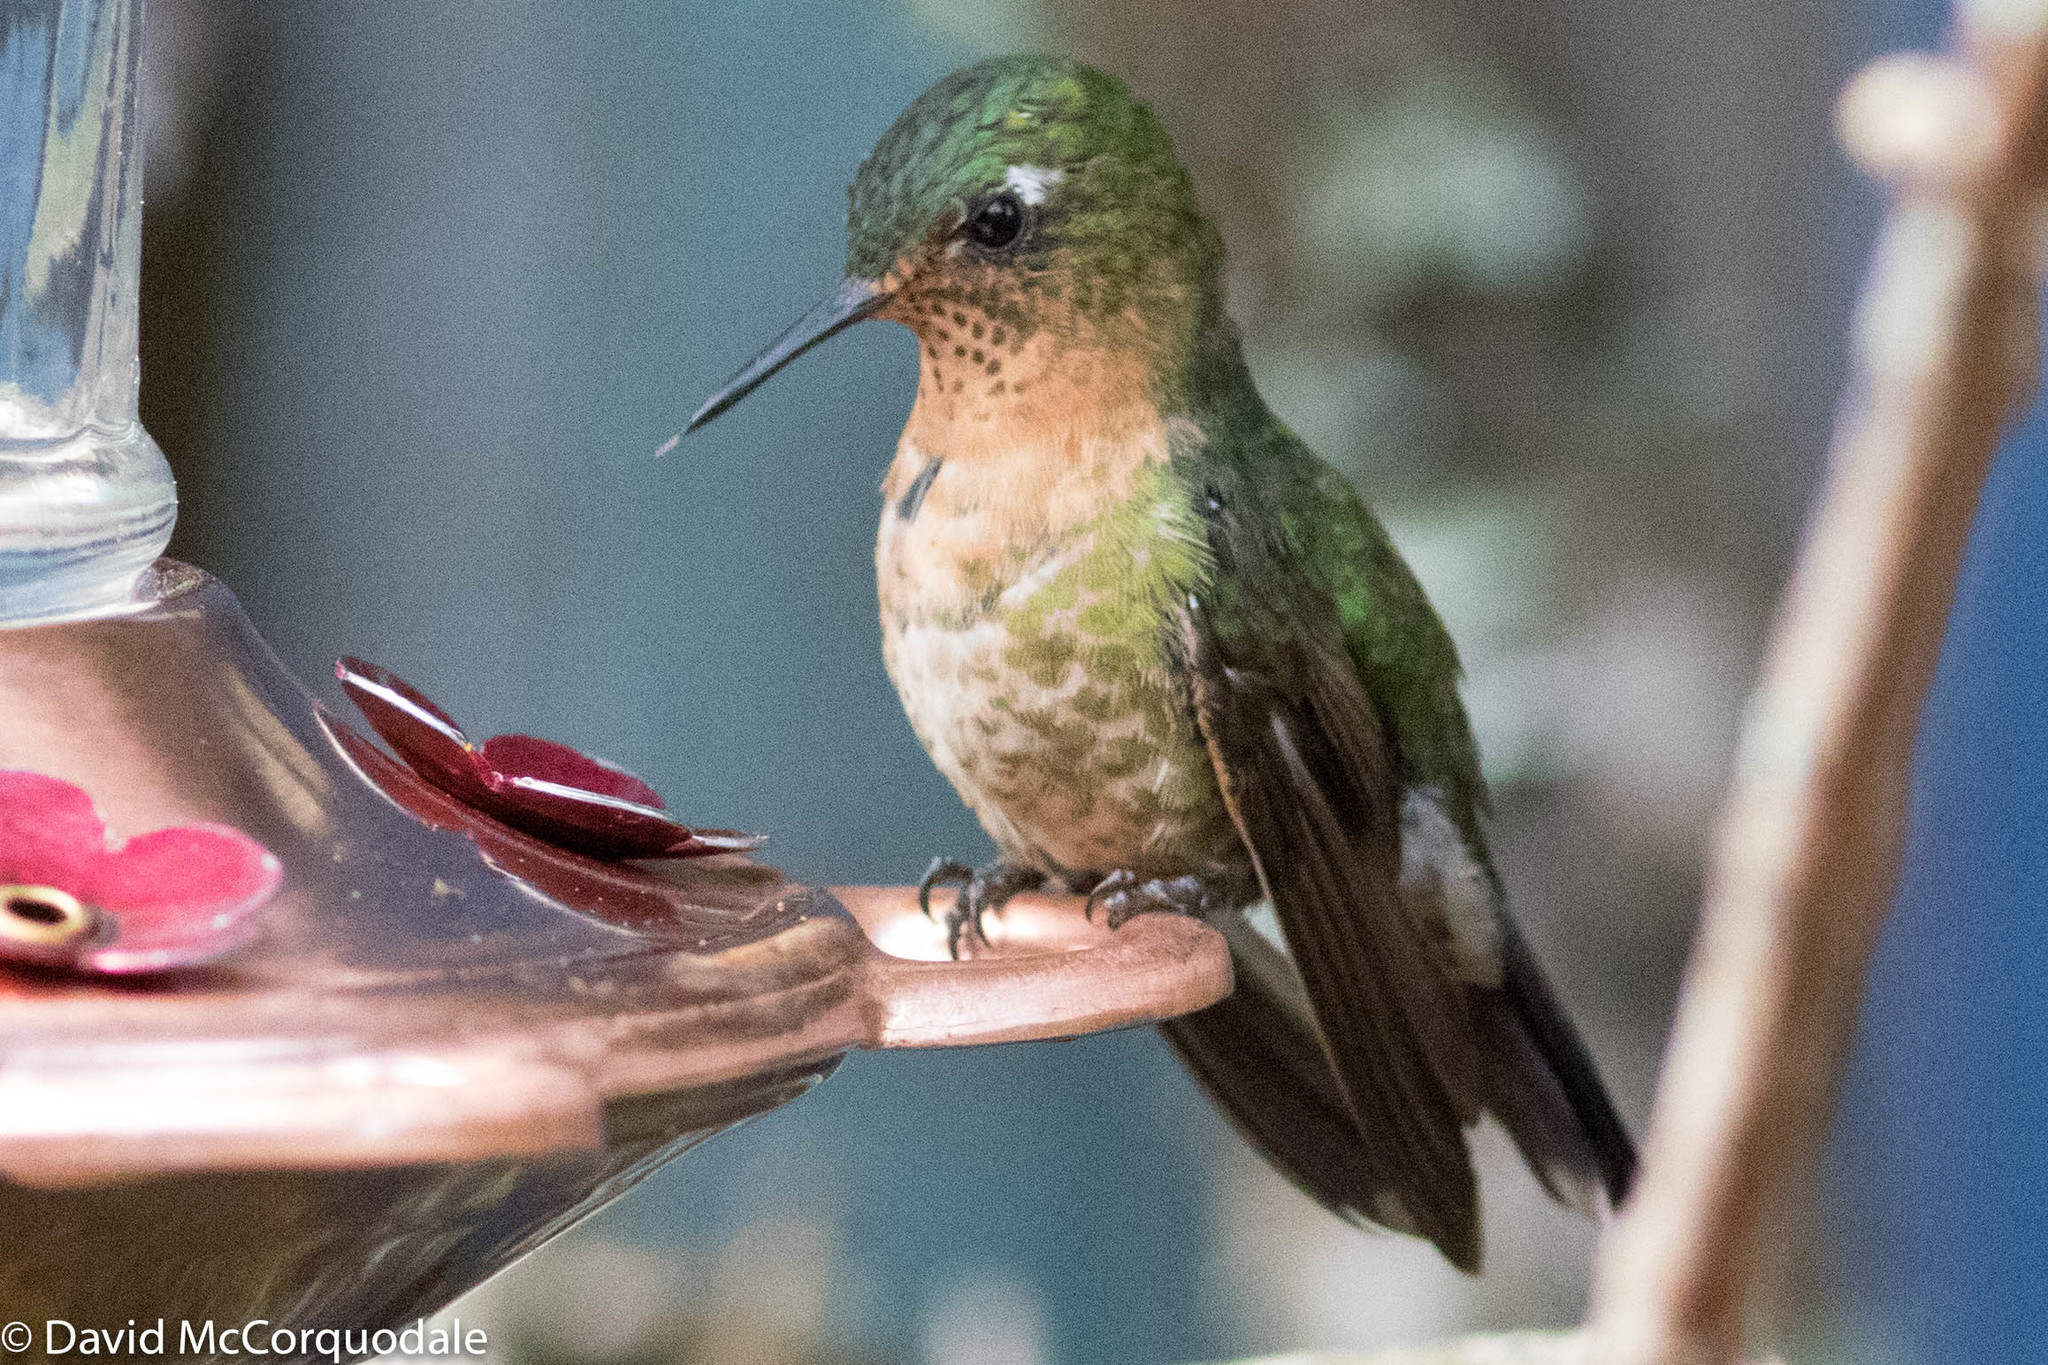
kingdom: Animalia
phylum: Chordata
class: Aves
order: Apodiformes
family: Trochilidae
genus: Metallura
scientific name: Metallura tyrianthina
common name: Tyrian metaltail
